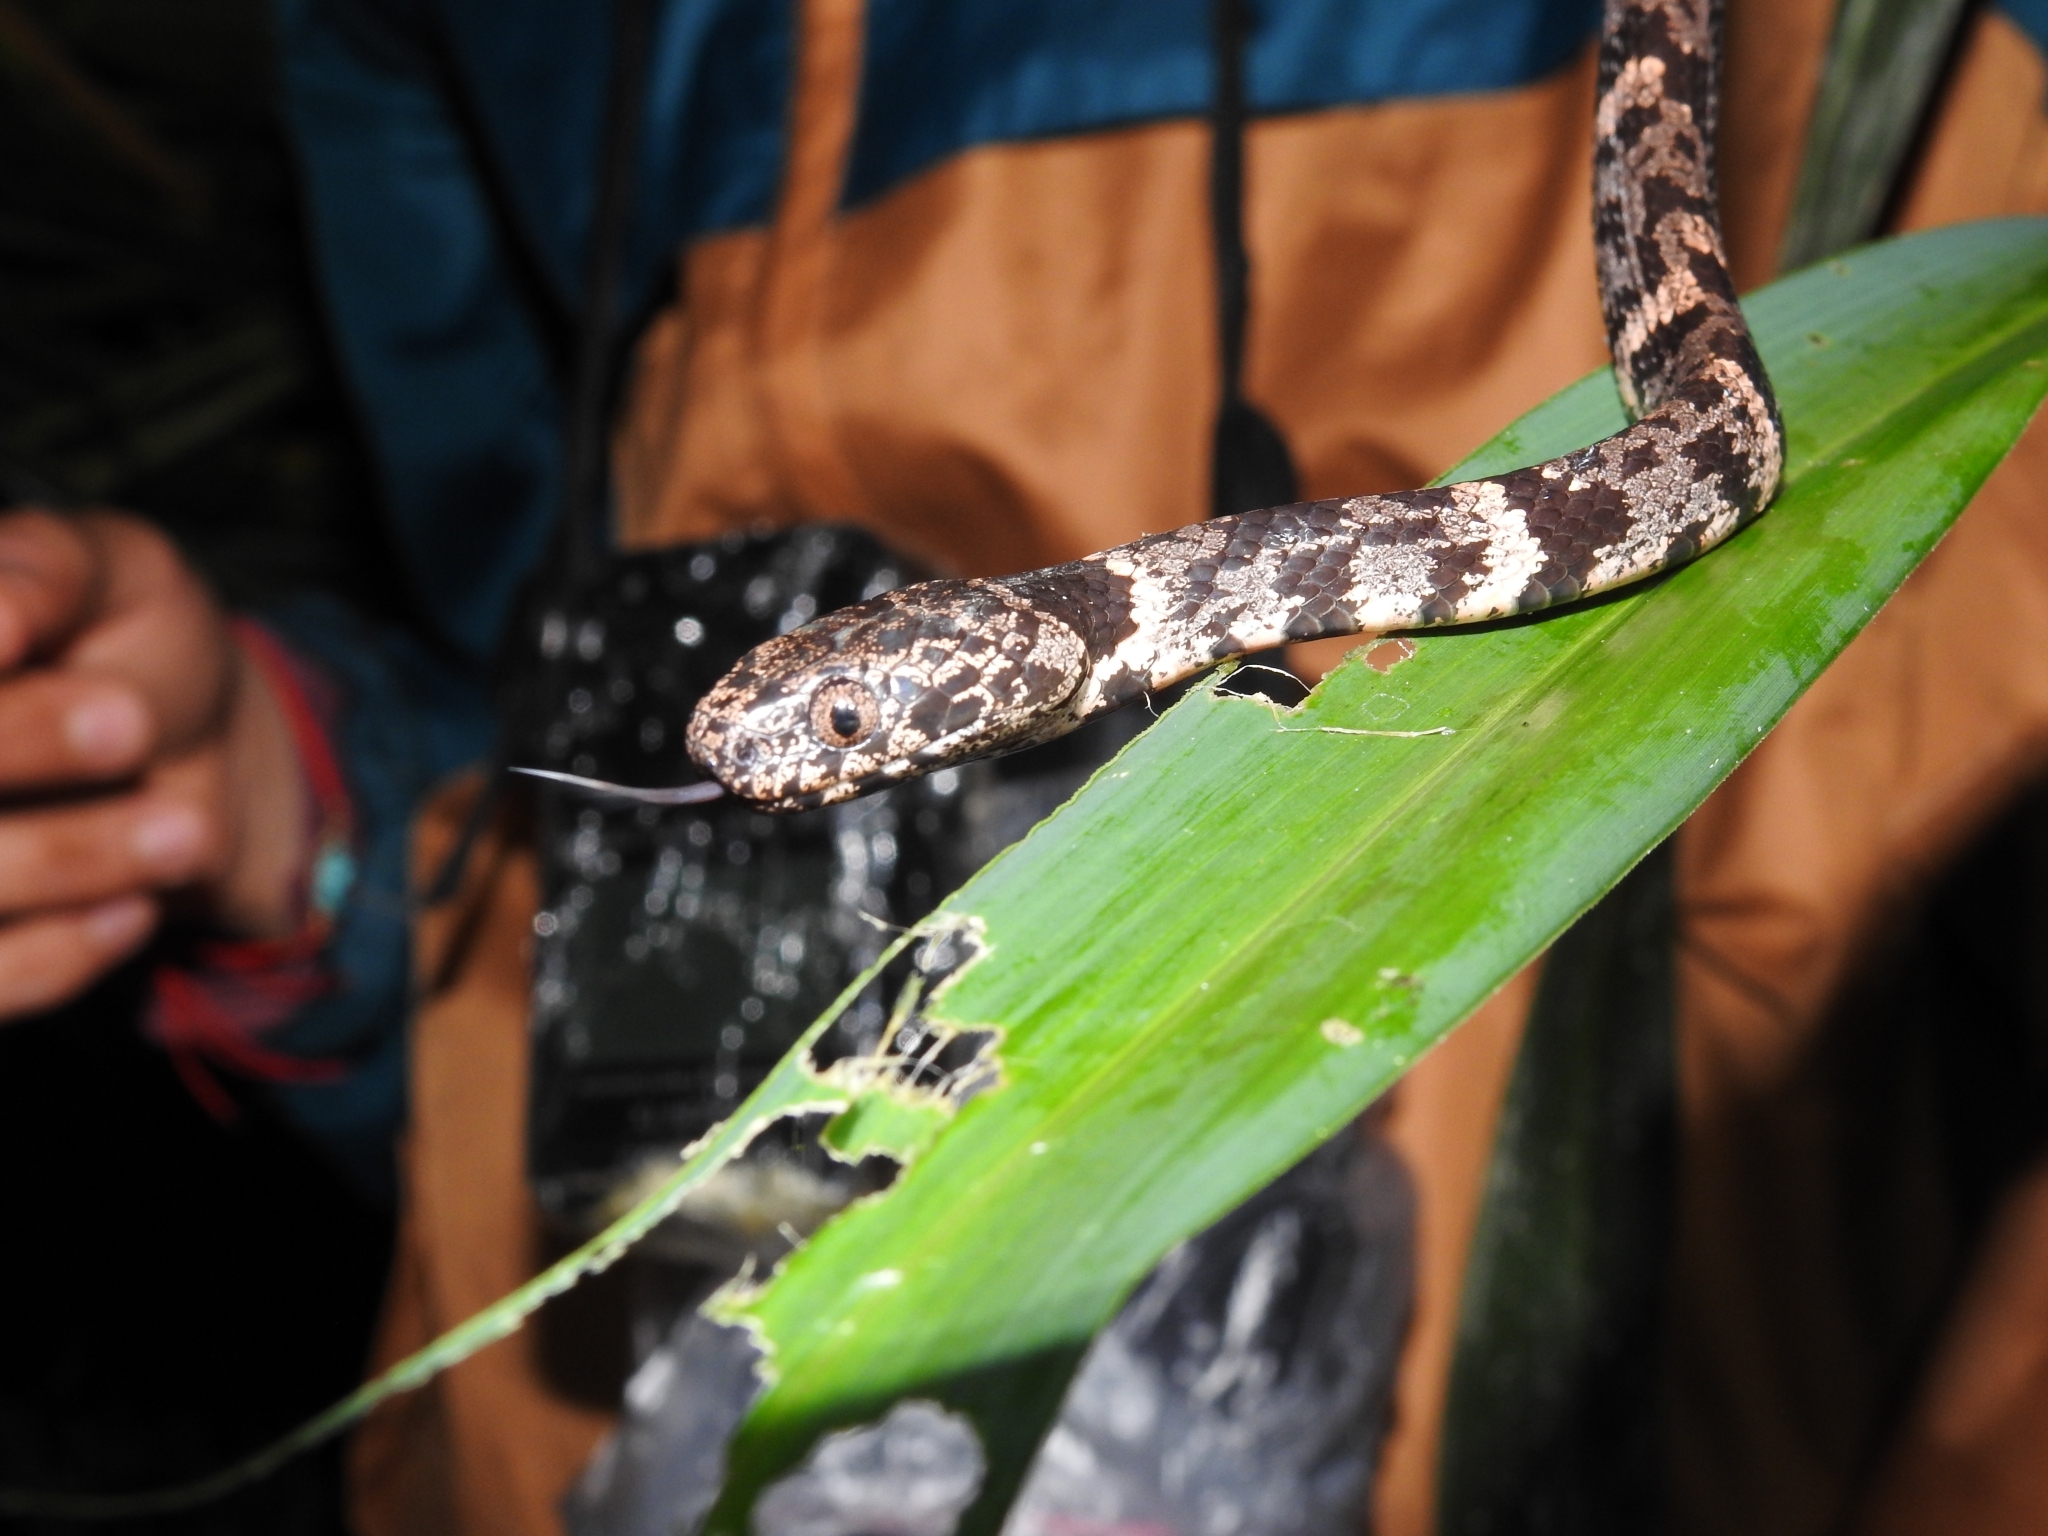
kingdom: Animalia
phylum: Chordata
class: Squamata
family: Colubridae
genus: Sibon
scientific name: Sibon nebulatus
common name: Cloudy snail-eating snake
